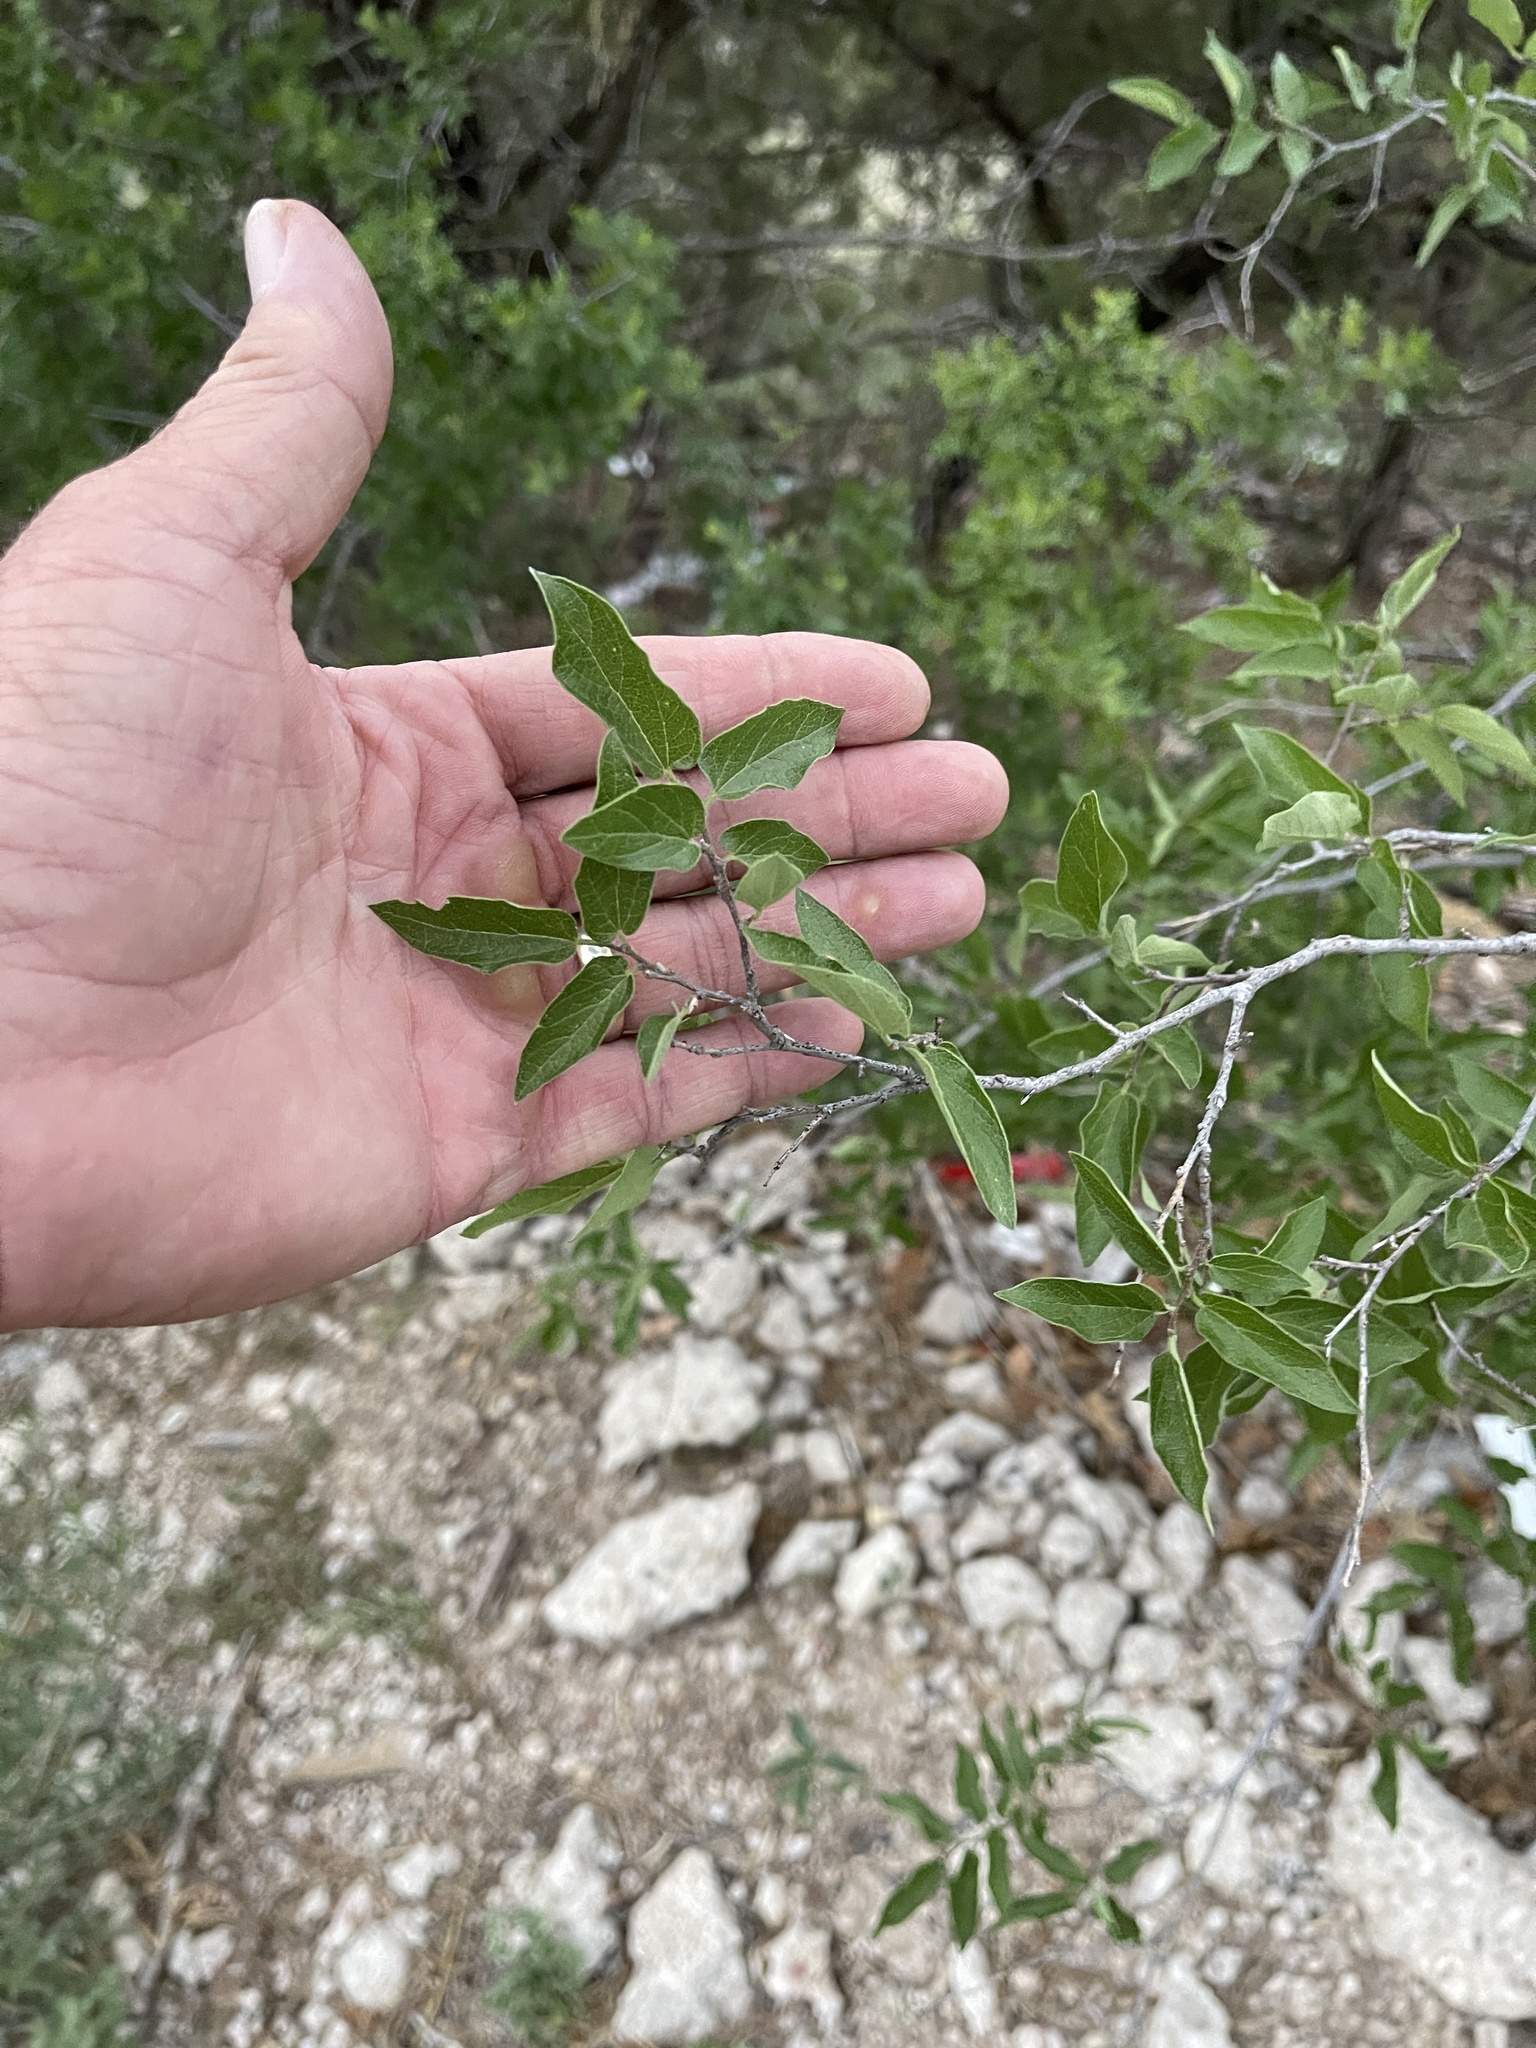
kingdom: Plantae
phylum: Tracheophyta
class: Magnoliopsida
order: Rosales
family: Cannabaceae
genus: Celtis
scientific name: Celtis reticulata
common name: Netleaf hackberry
